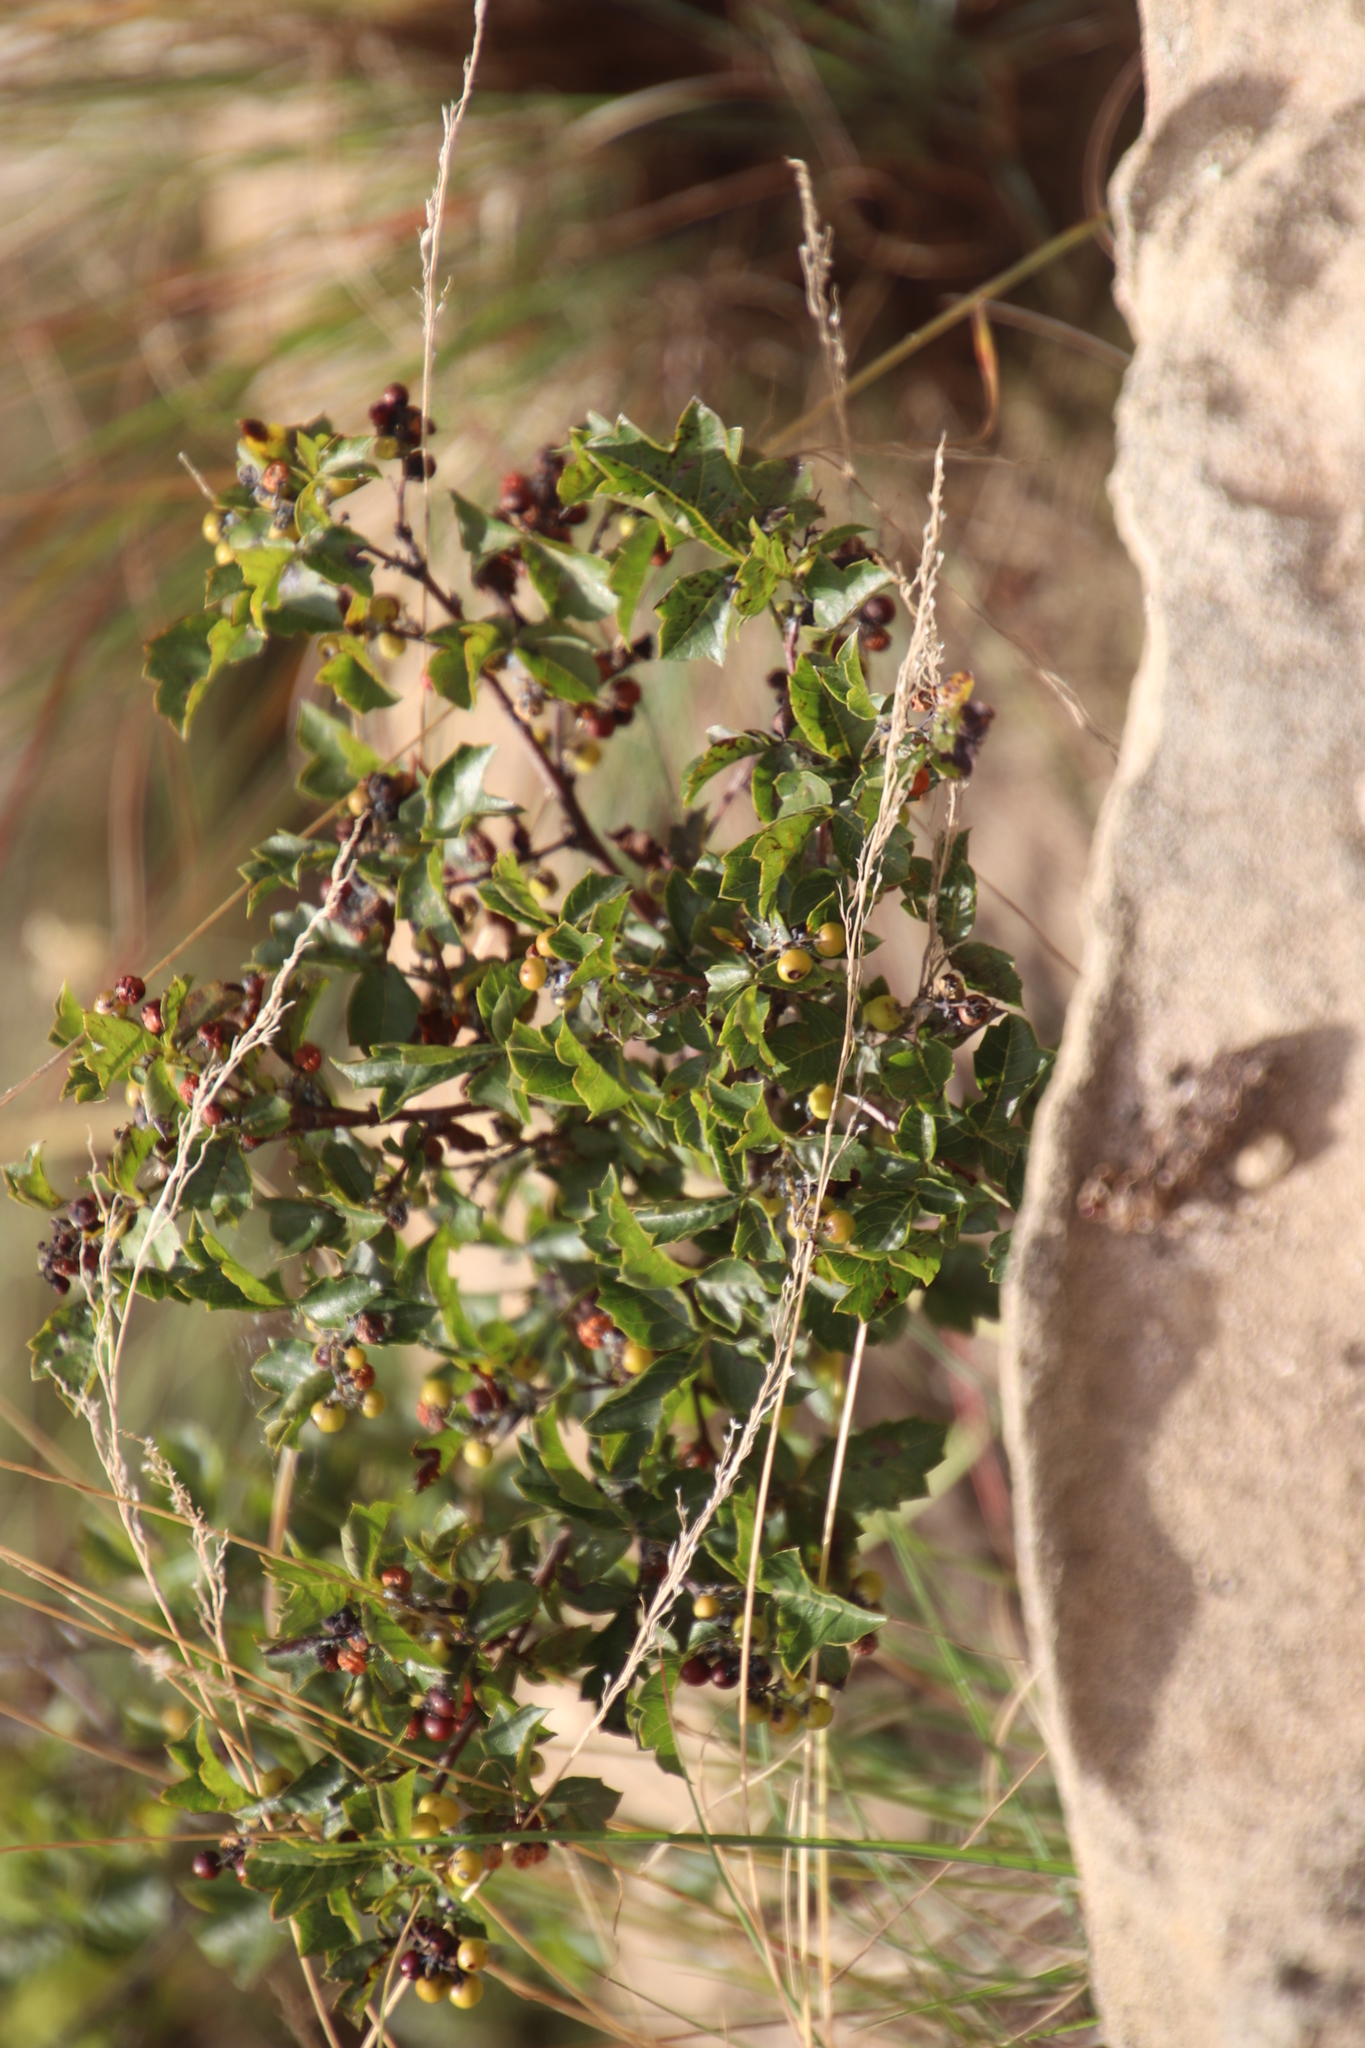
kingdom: Plantae
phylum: Tracheophyta
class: Magnoliopsida
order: Sapindales
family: Anacardiaceae
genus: Searsia
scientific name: Searsia dentata
